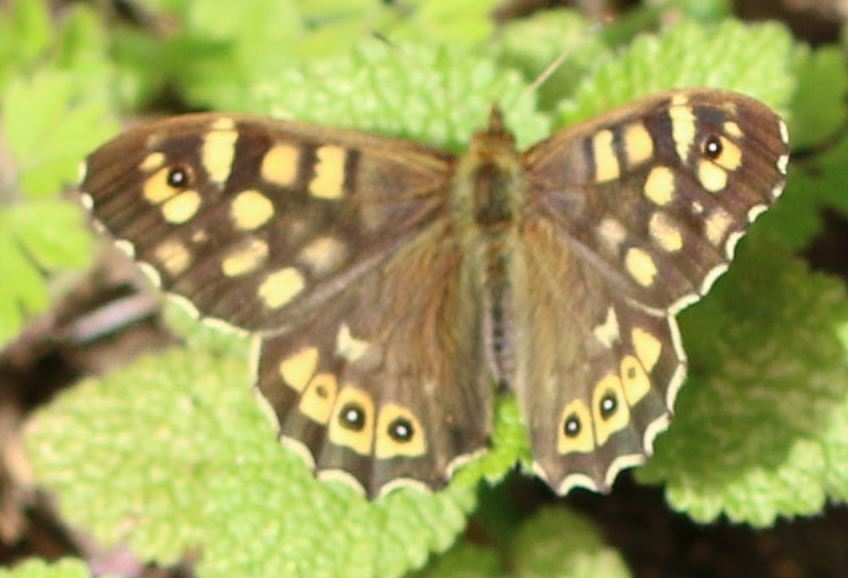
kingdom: Animalia
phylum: Arthropoda
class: Insecta
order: Lepidoptera
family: Nymphalidae
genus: Pararge
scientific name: Pararge aegeria
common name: Speckled wood
